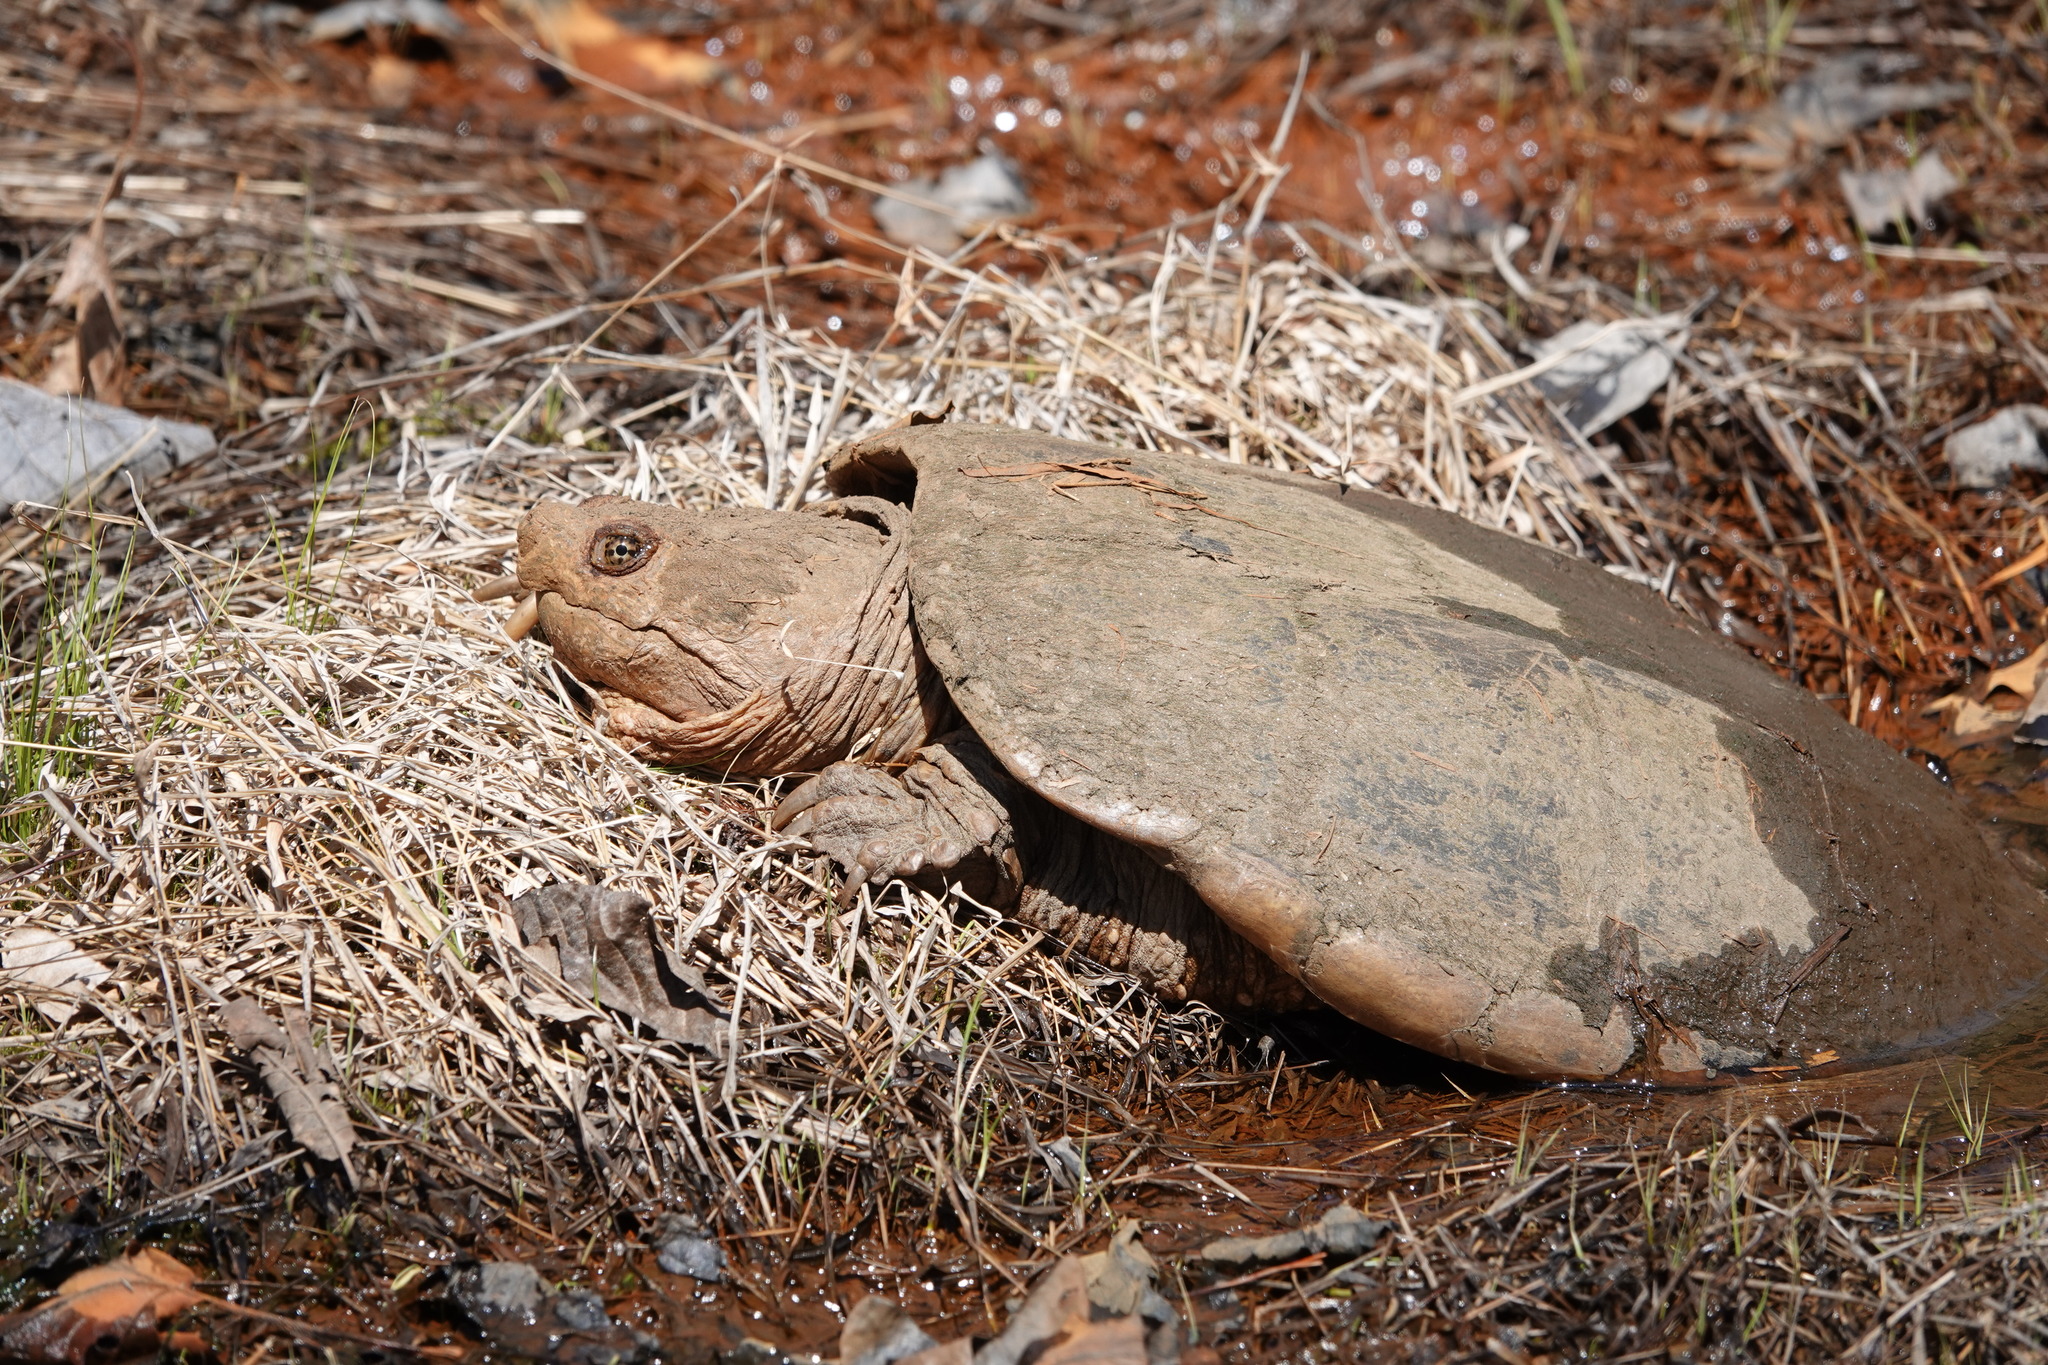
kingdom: Animalia
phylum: Chordata
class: Testudines
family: Chelydridae
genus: Chelydra
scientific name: Chelydra serpentina
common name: Common snapping turtle
